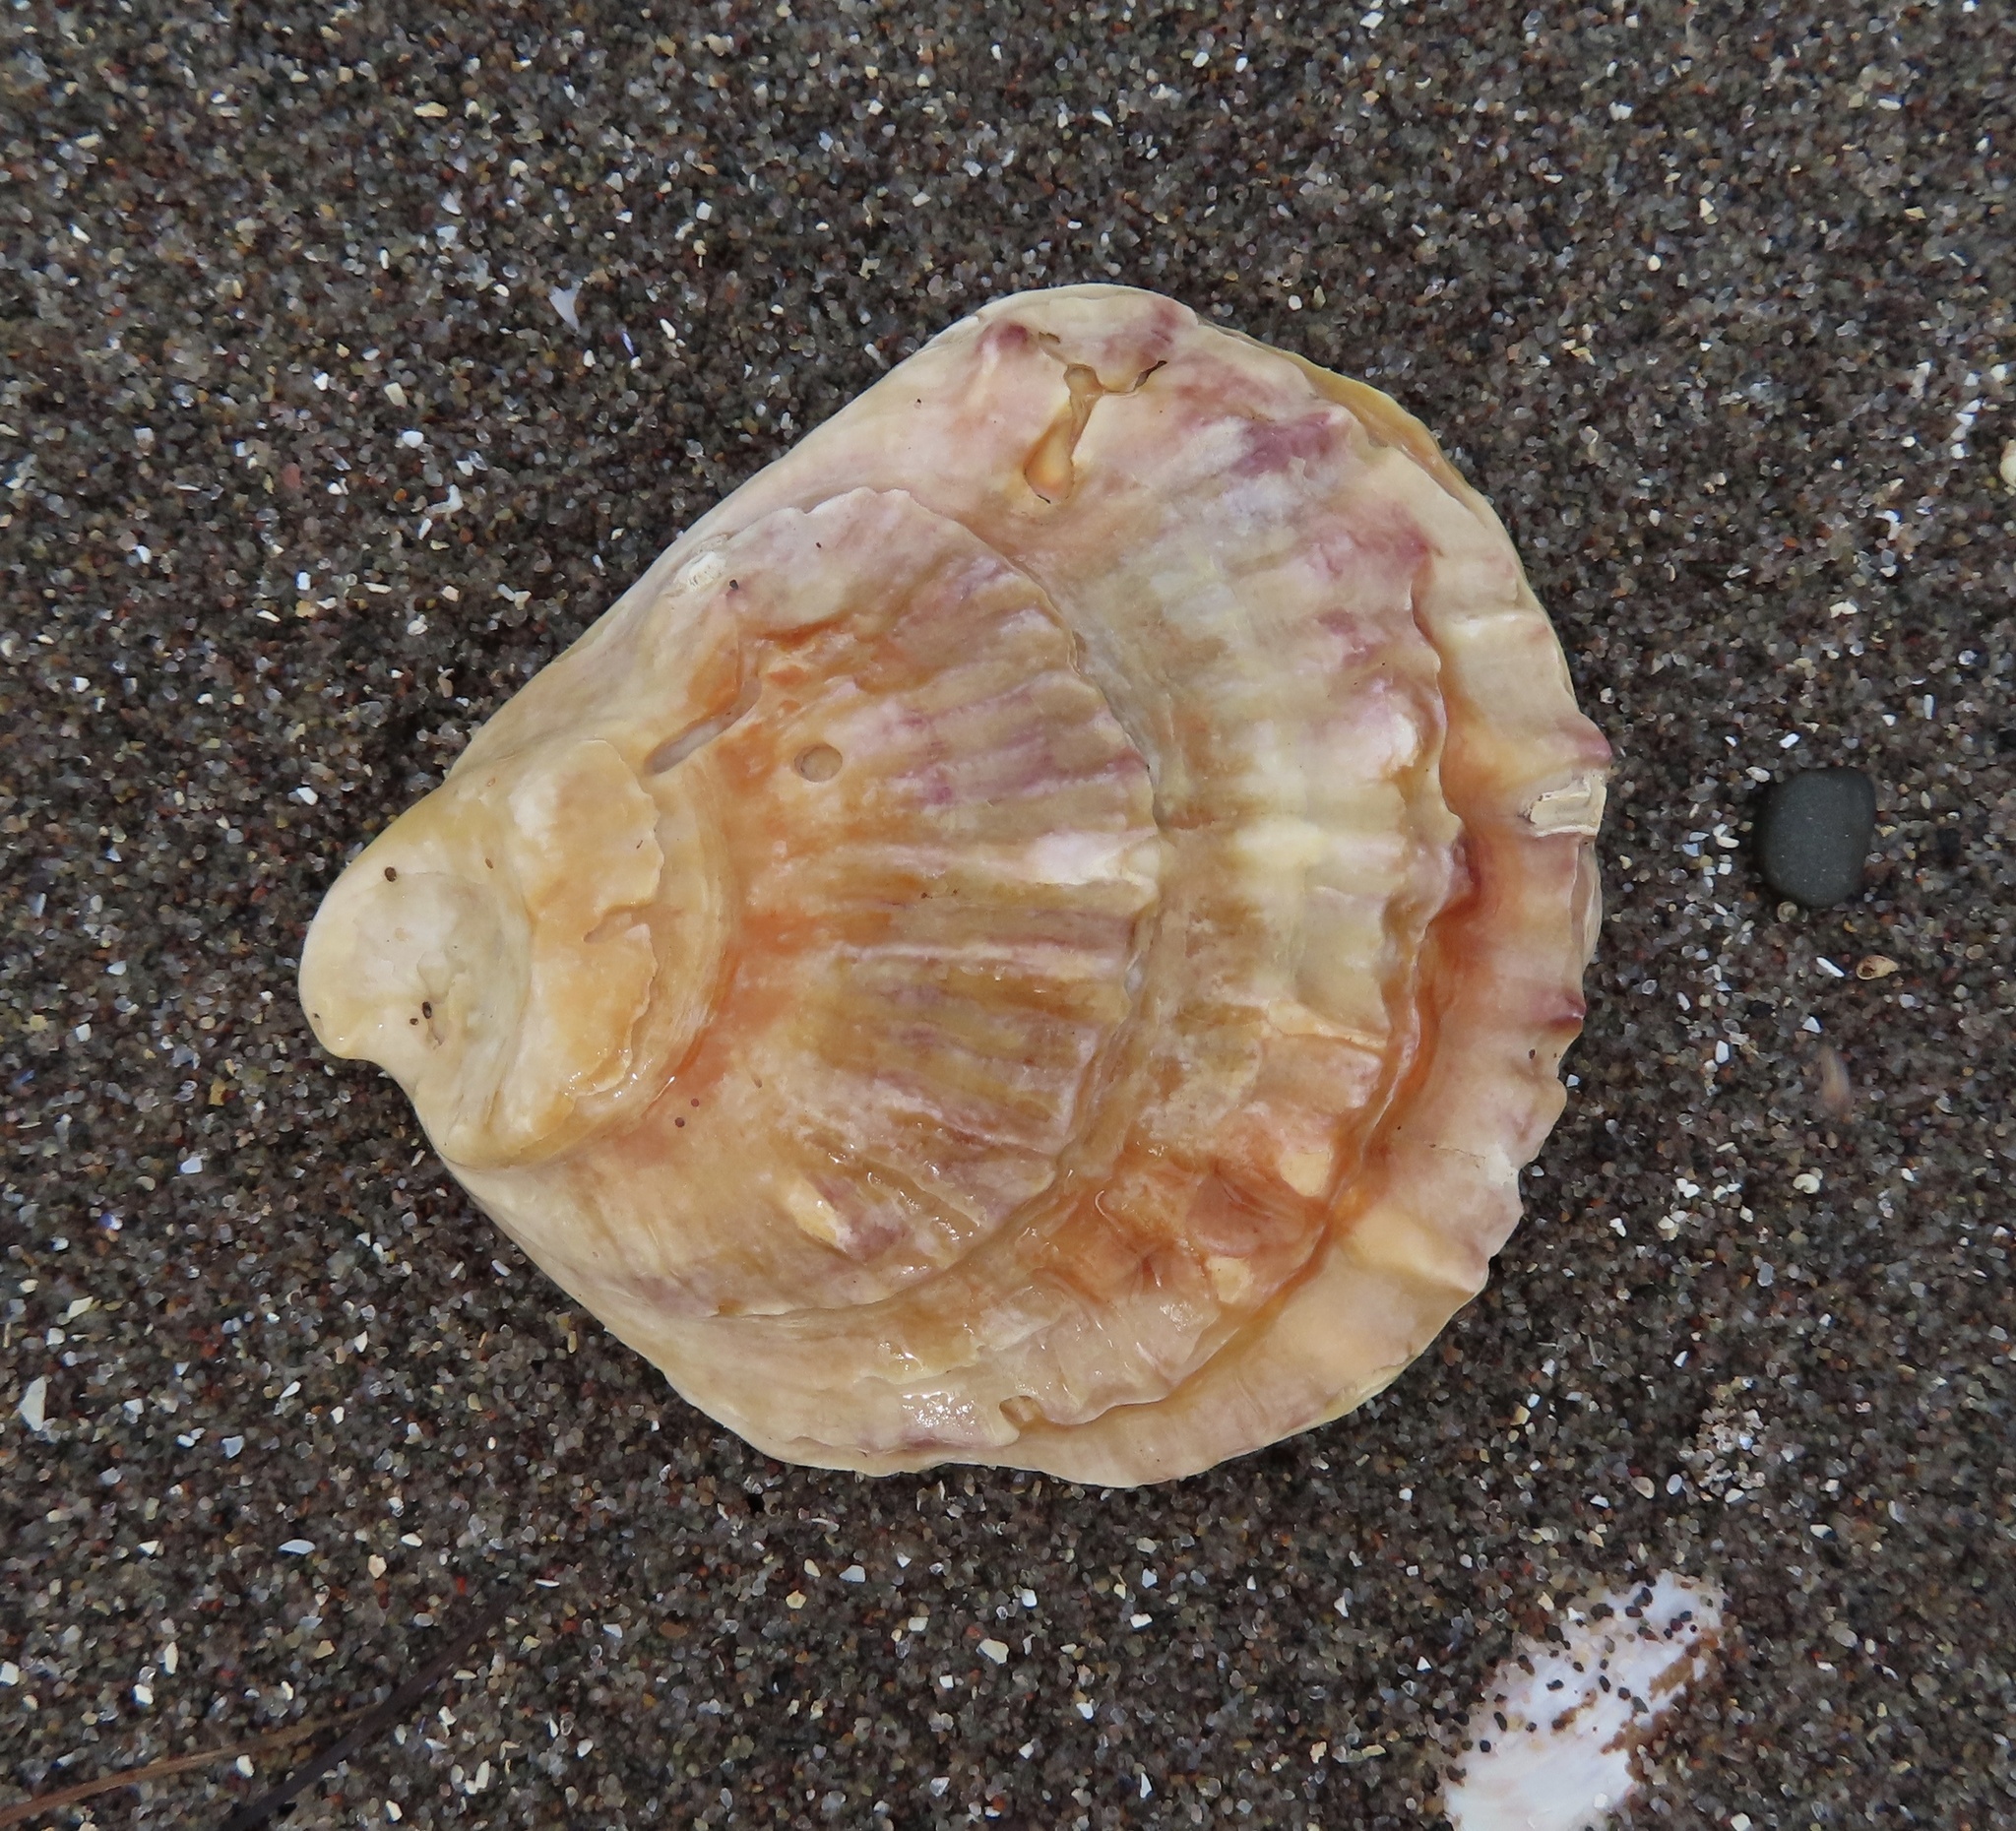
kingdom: Animalia
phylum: Mollusca
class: Bivalvia
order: Ostreida
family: Ostreidae
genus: Ostrea
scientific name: Ostrea edulis
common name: Flat oyster
